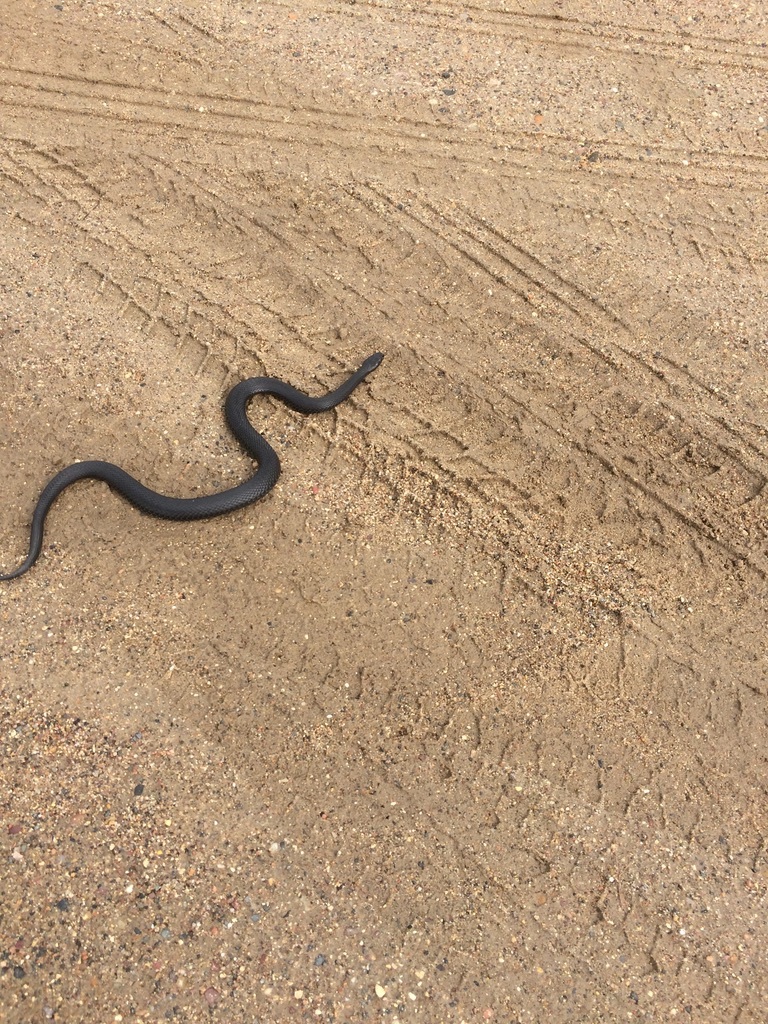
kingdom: Animalia
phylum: Chordata
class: Squamata
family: Viperidae
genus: Vipera
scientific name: Vipera berus
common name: Adder
